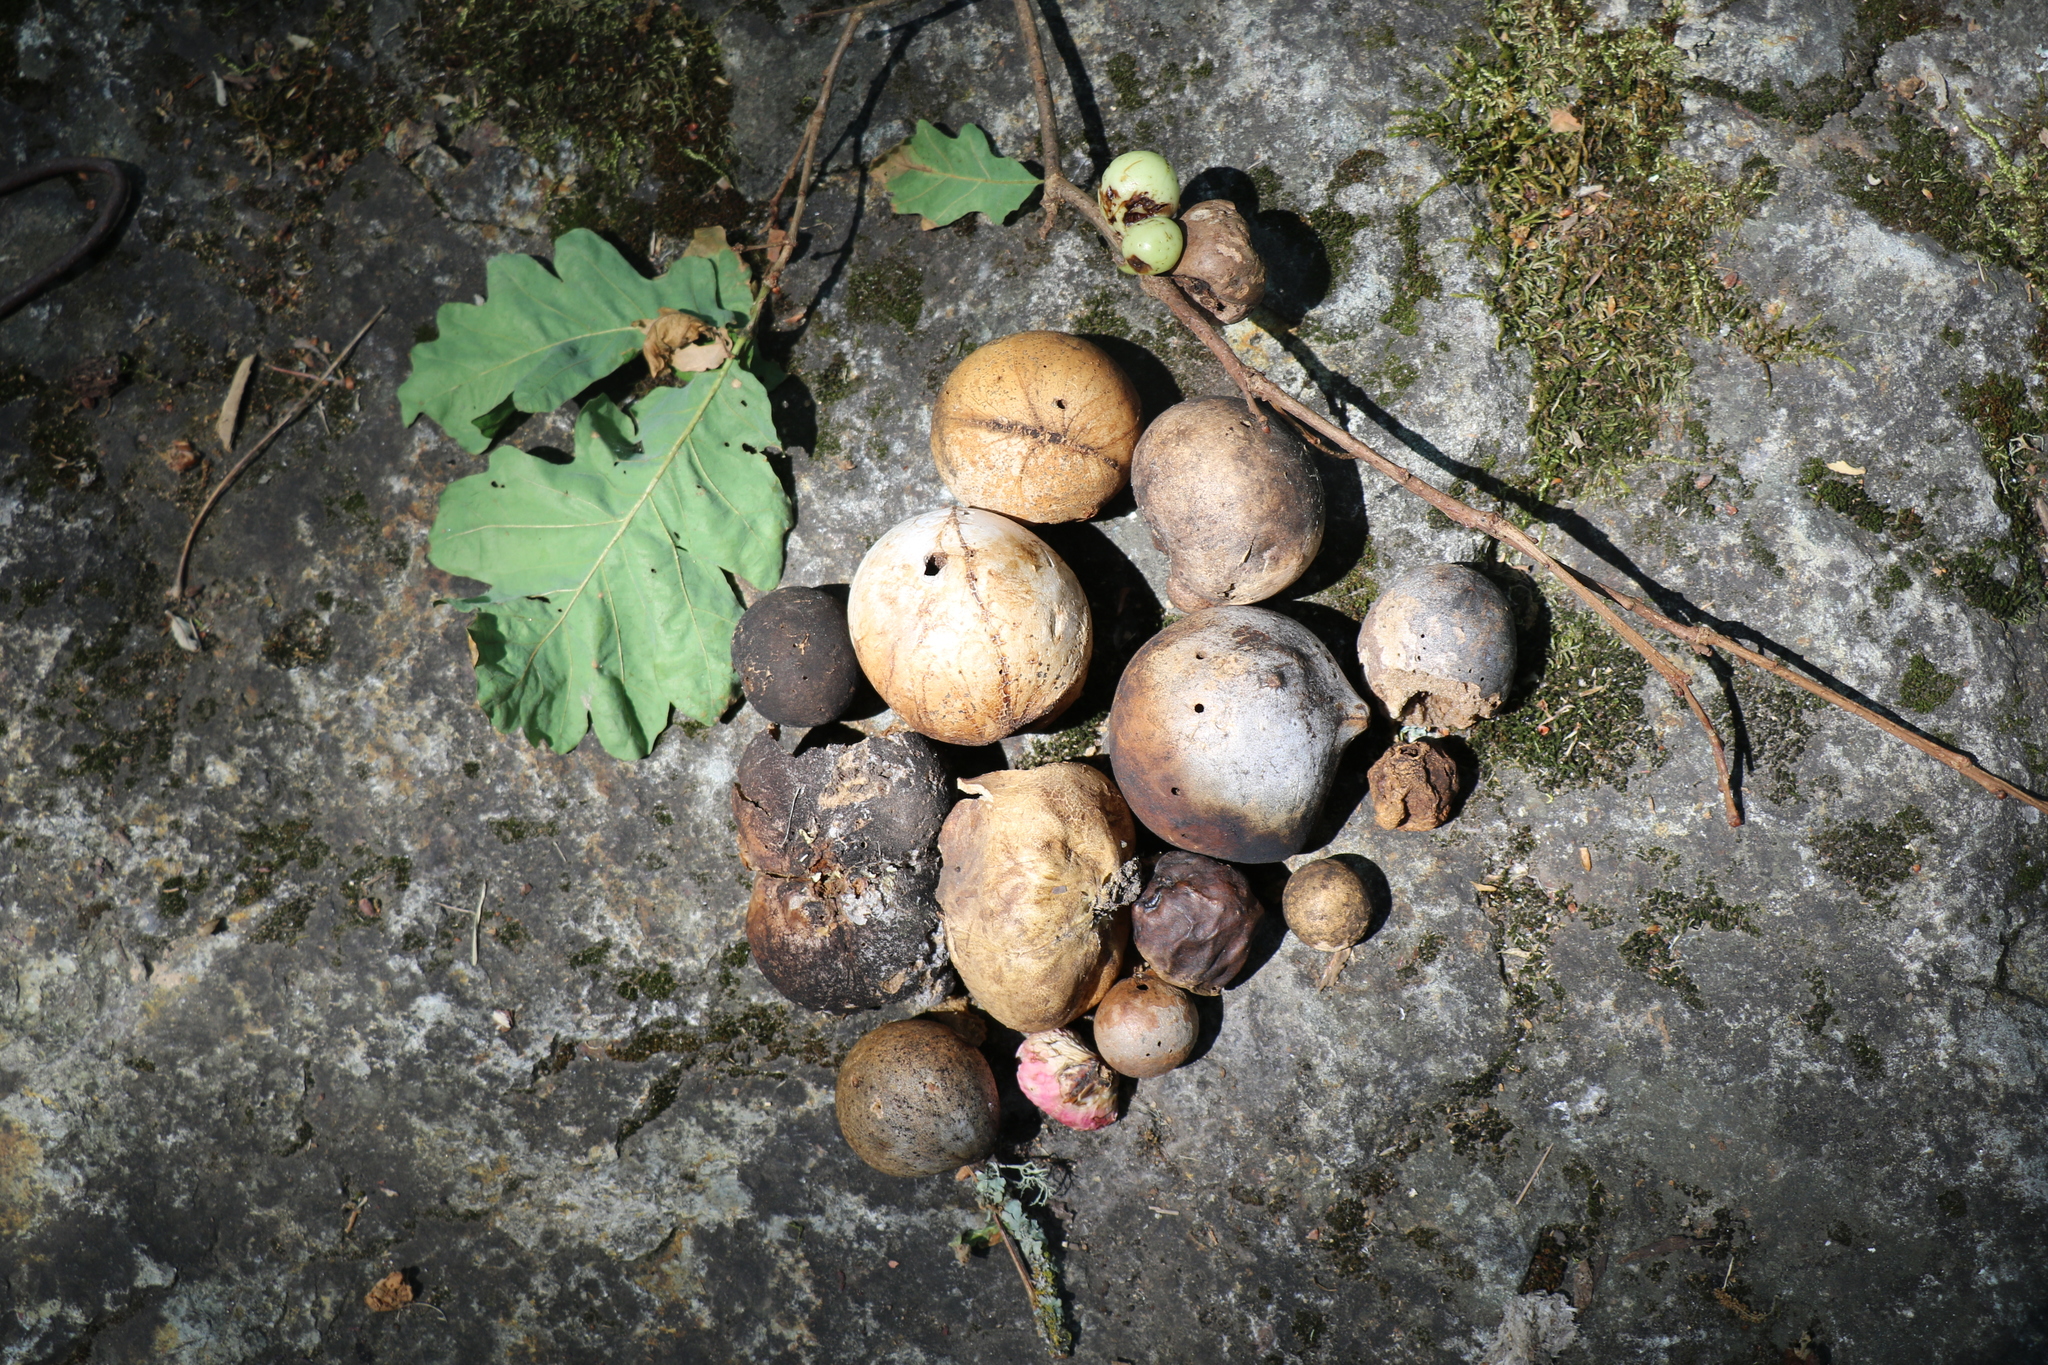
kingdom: Animalia
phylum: Arthropoda
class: Insecta
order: Hymenoptera
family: Cynipidae
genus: Andricus
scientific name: Andricus quercuscalifornicus
